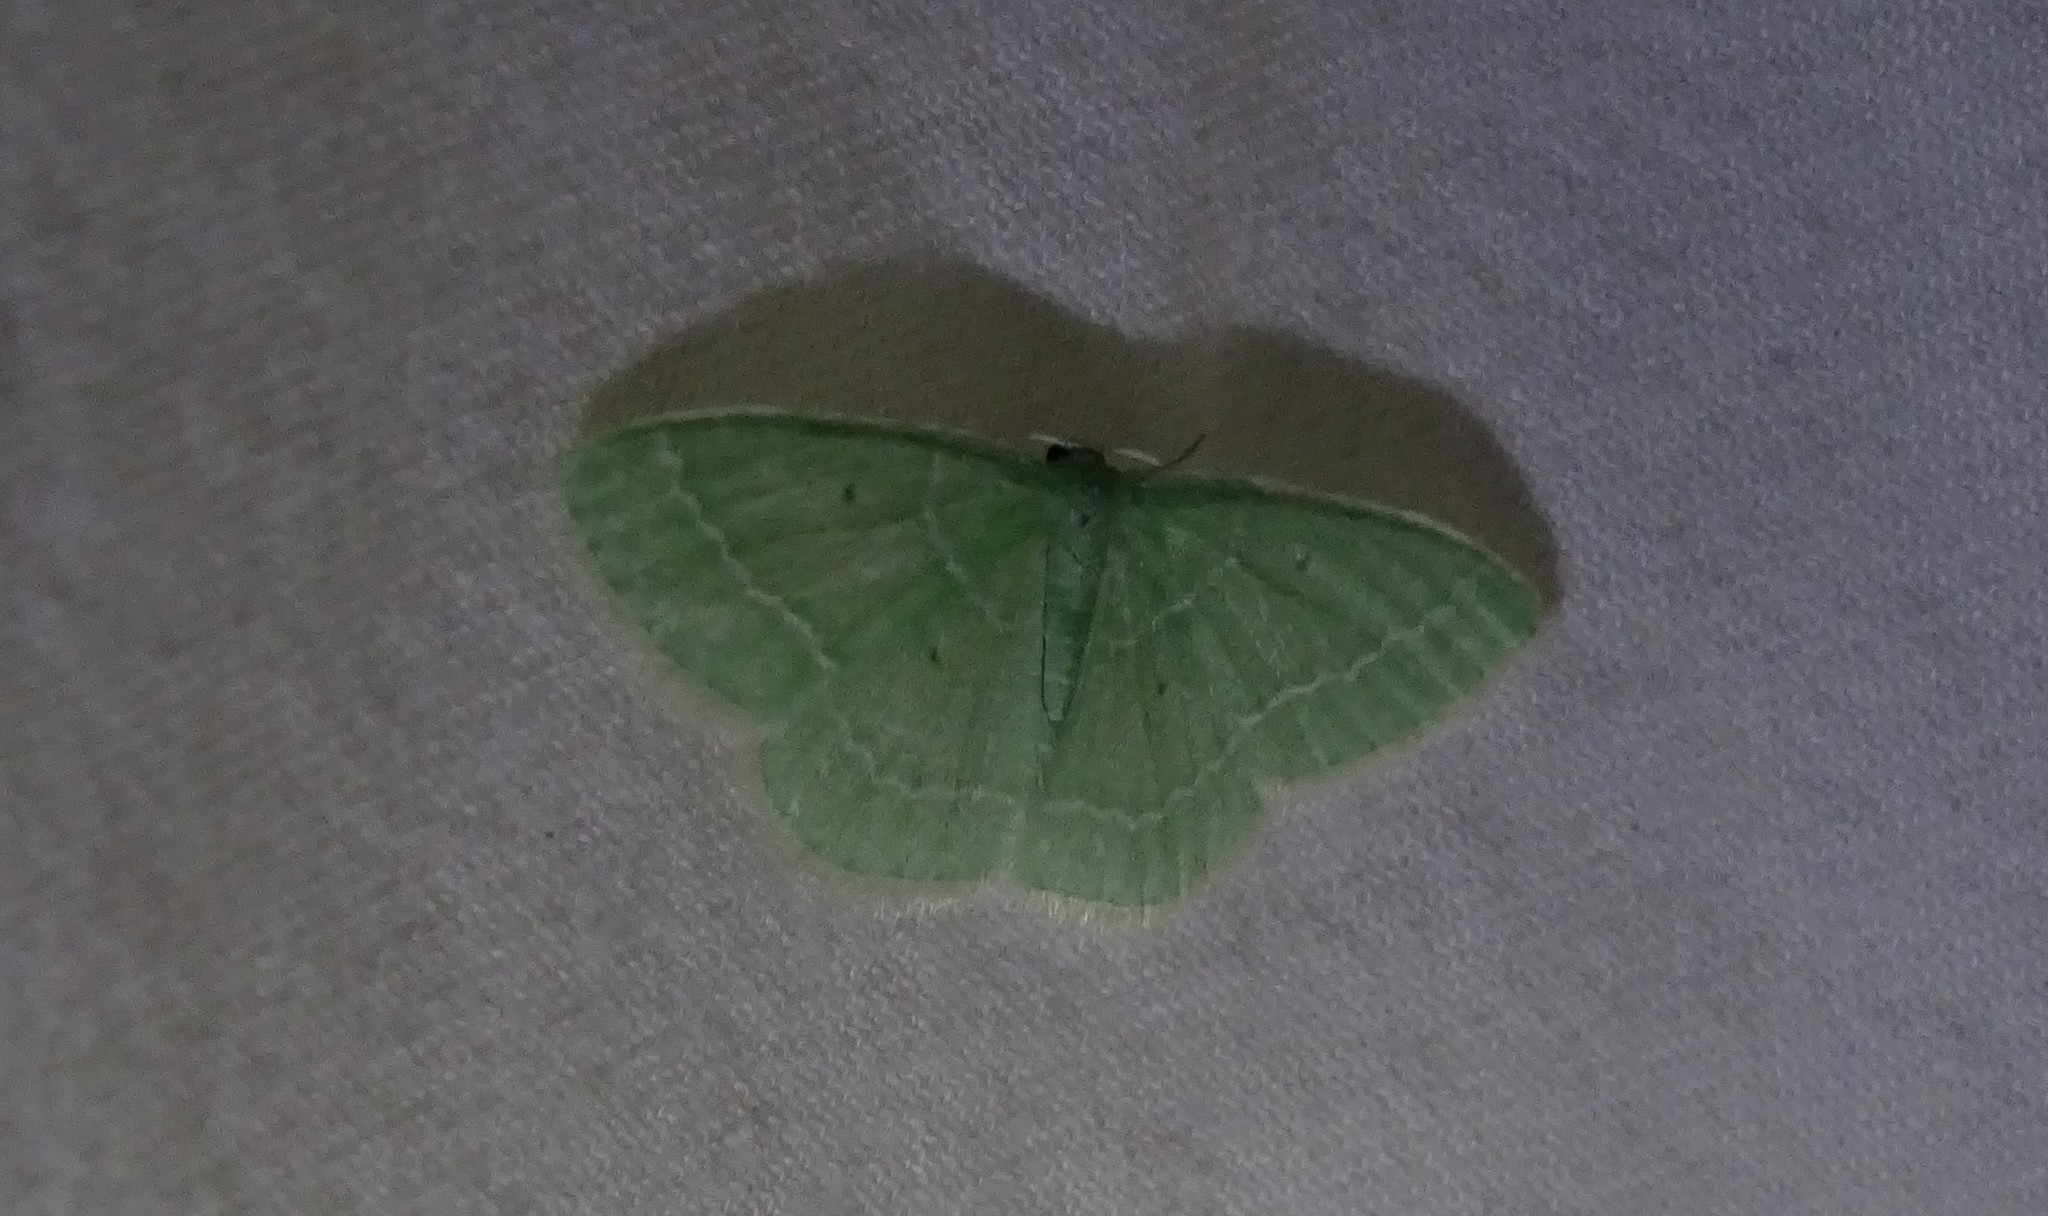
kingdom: Animalia
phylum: Arthropoda
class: Insecta
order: Lepidoptera
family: Geometridae
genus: Nemoria
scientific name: Nemoria elfa
